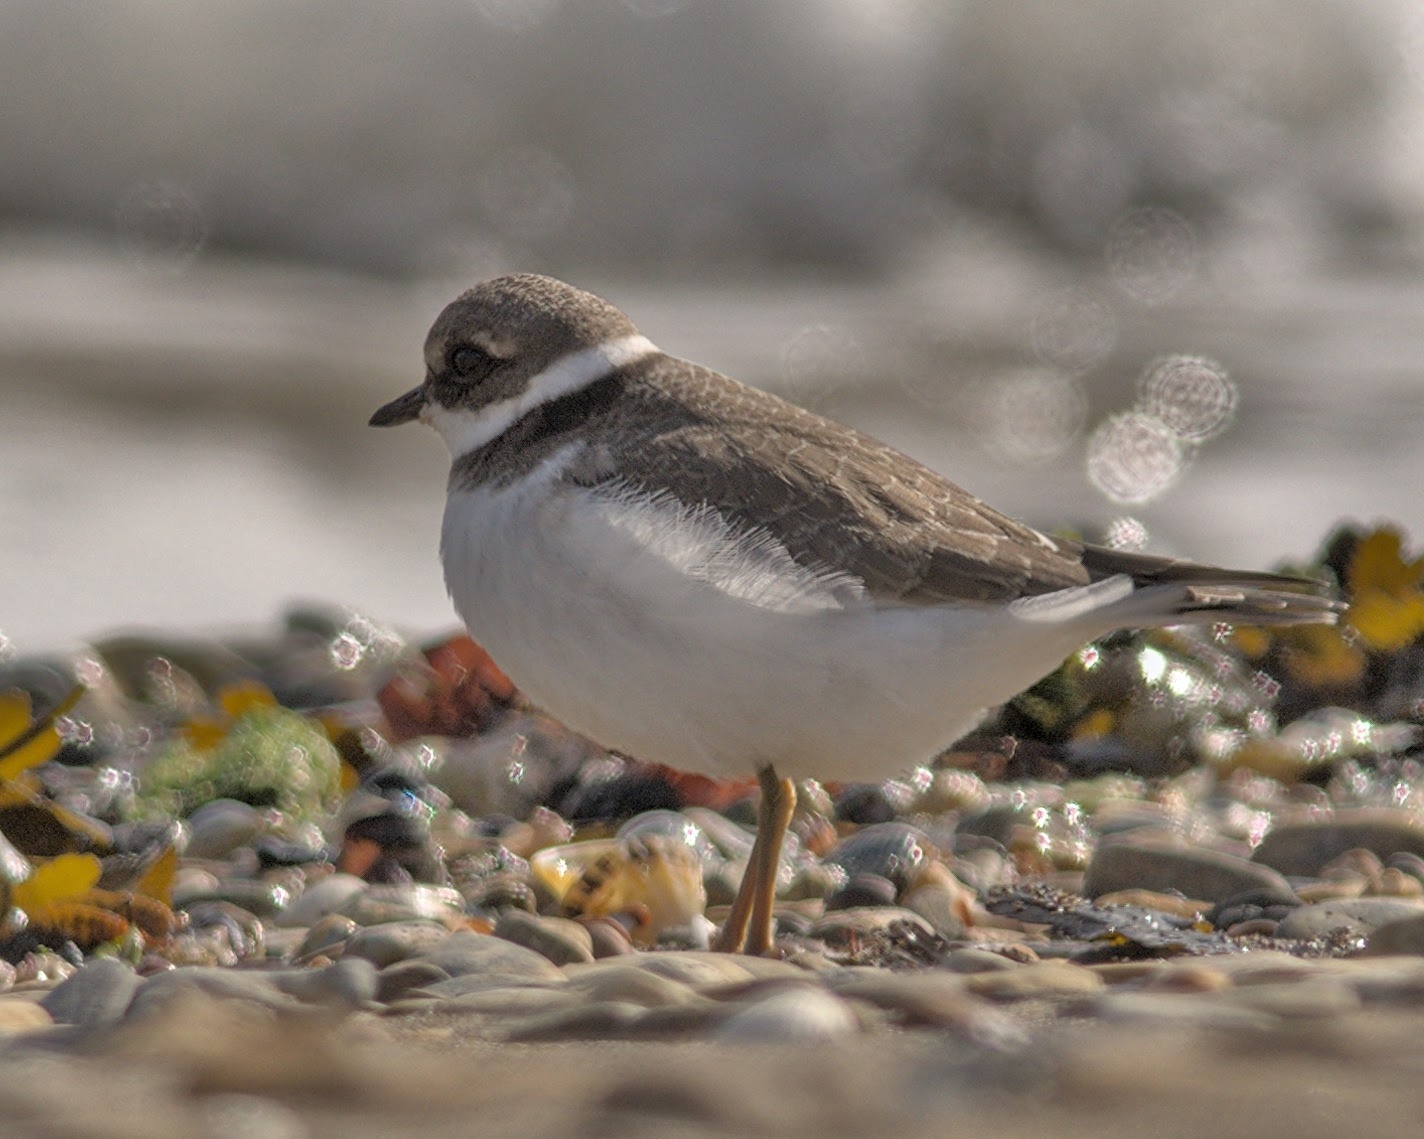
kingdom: Animalia
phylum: Chordata
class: Aves
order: Charadriiformes
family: Charadriidae
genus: Charadrius
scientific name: Charadrius hiaticula
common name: Common ringed plover
